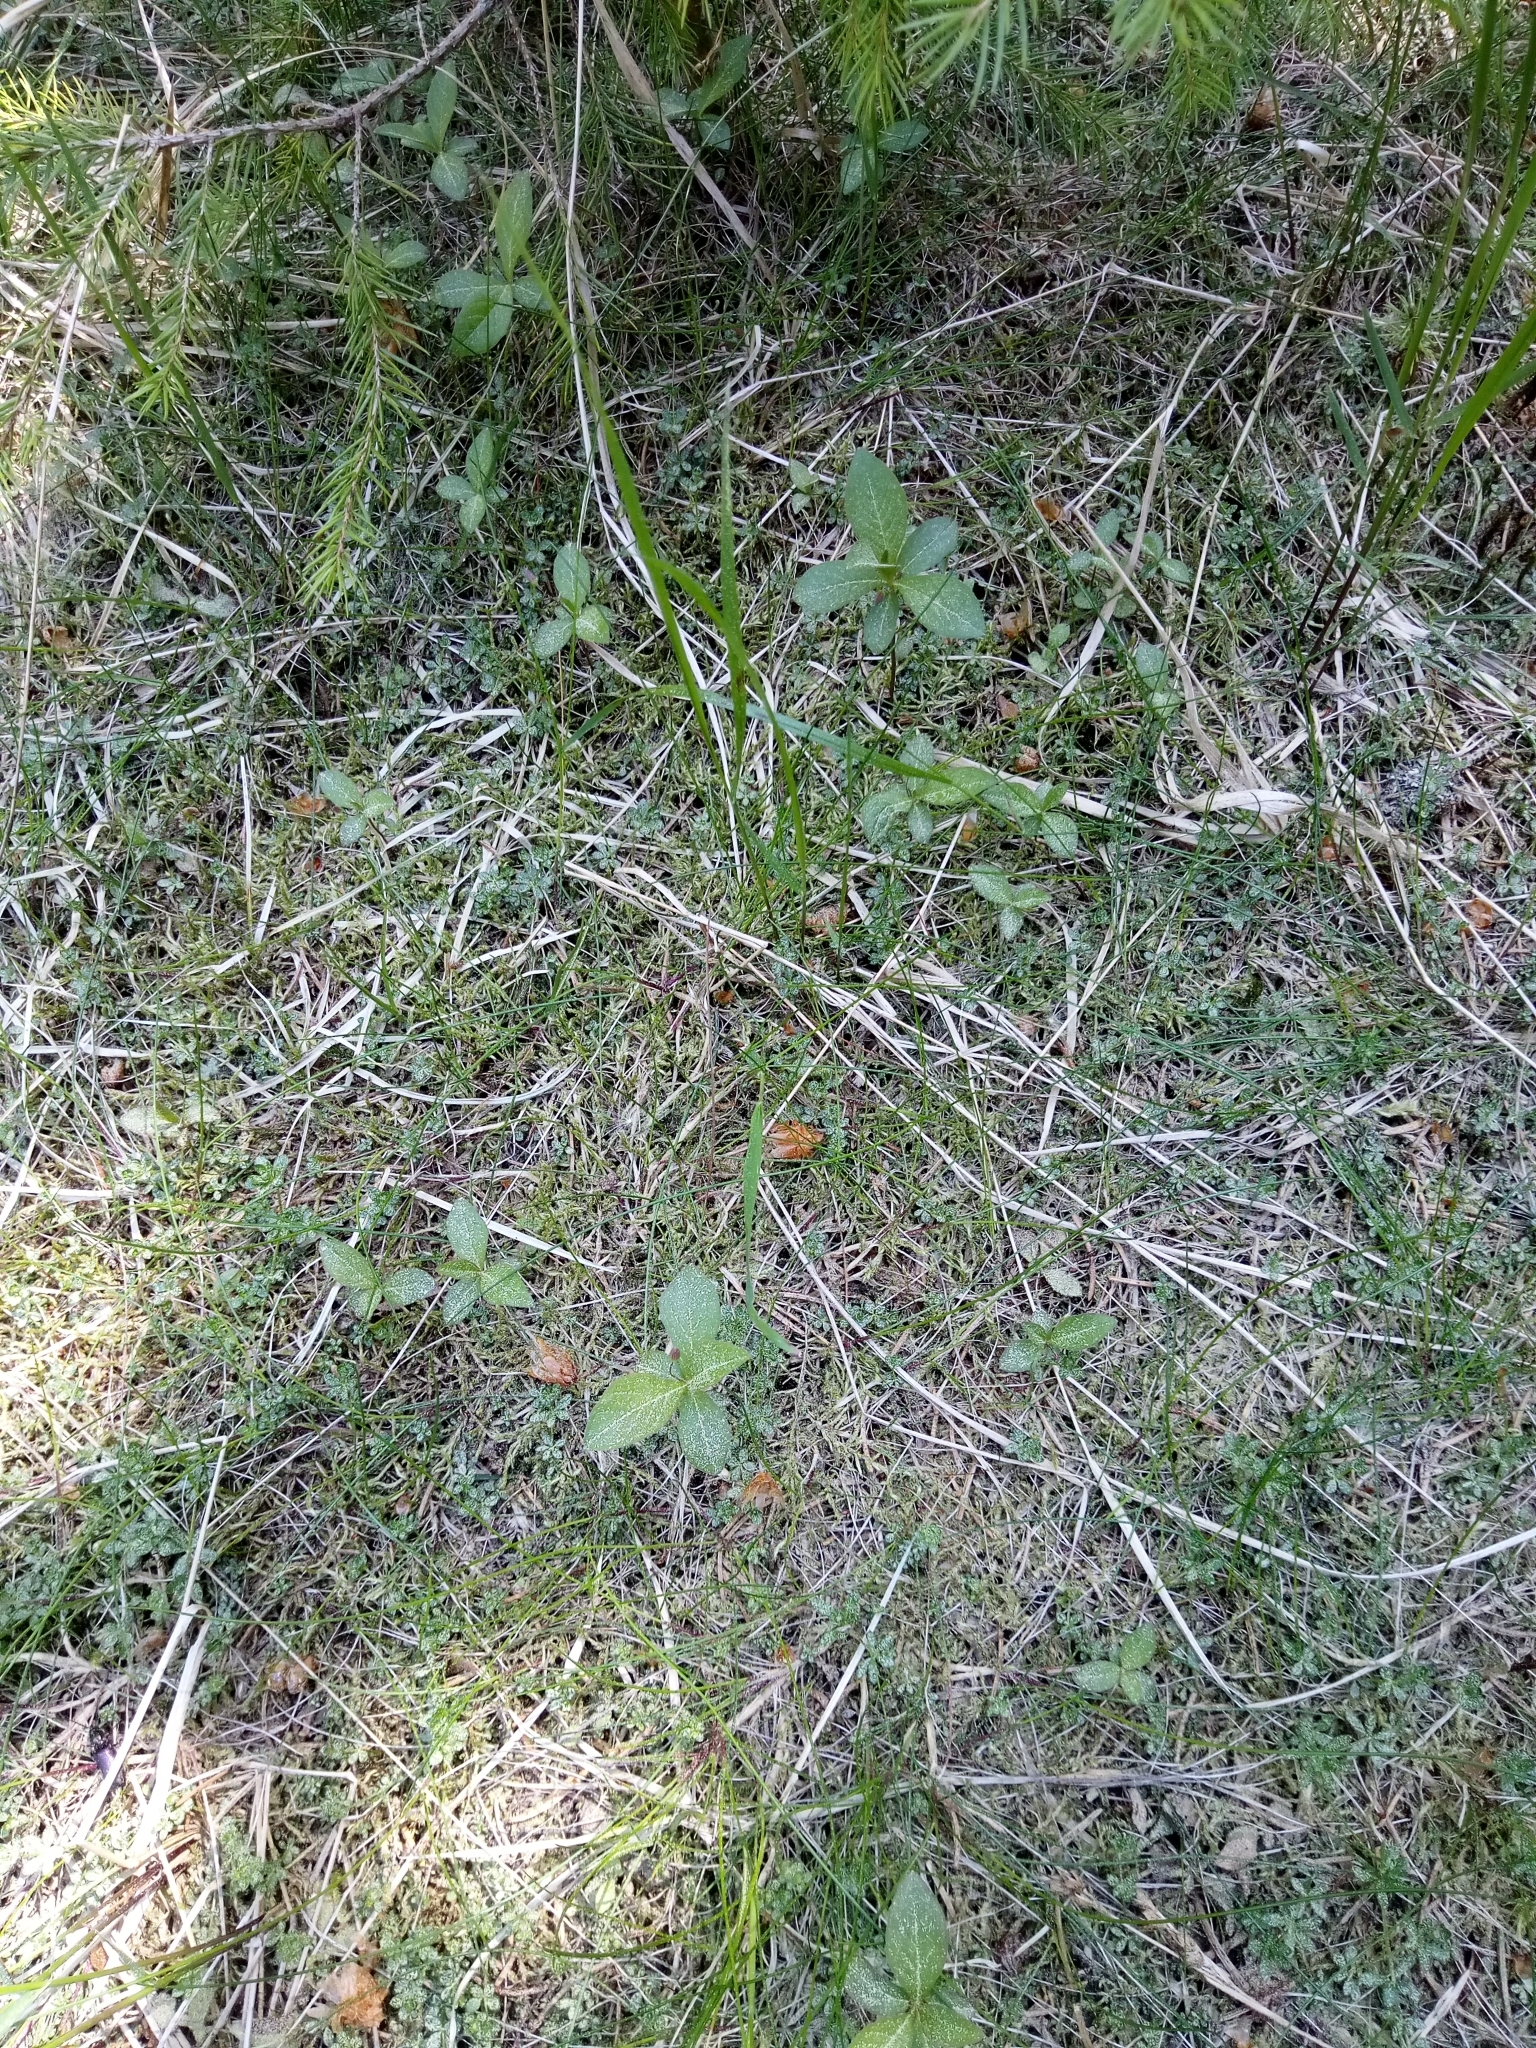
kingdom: Plantae
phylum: Tracheophyta
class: Magnoliopsida
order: Ericales
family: Primulaceae
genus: Lysimachia
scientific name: Lysimachia europaea
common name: Arctic starflower
